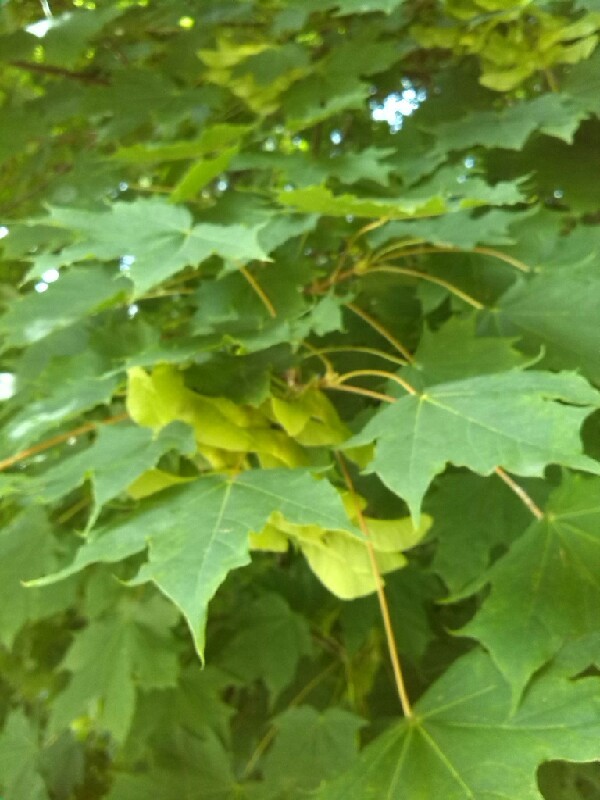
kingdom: Plantae
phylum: Tracheophyta
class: Magnoliopsida
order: Sapindales
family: Sapindaceae
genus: Acer
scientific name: Acer platanoides
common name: Norway maple
